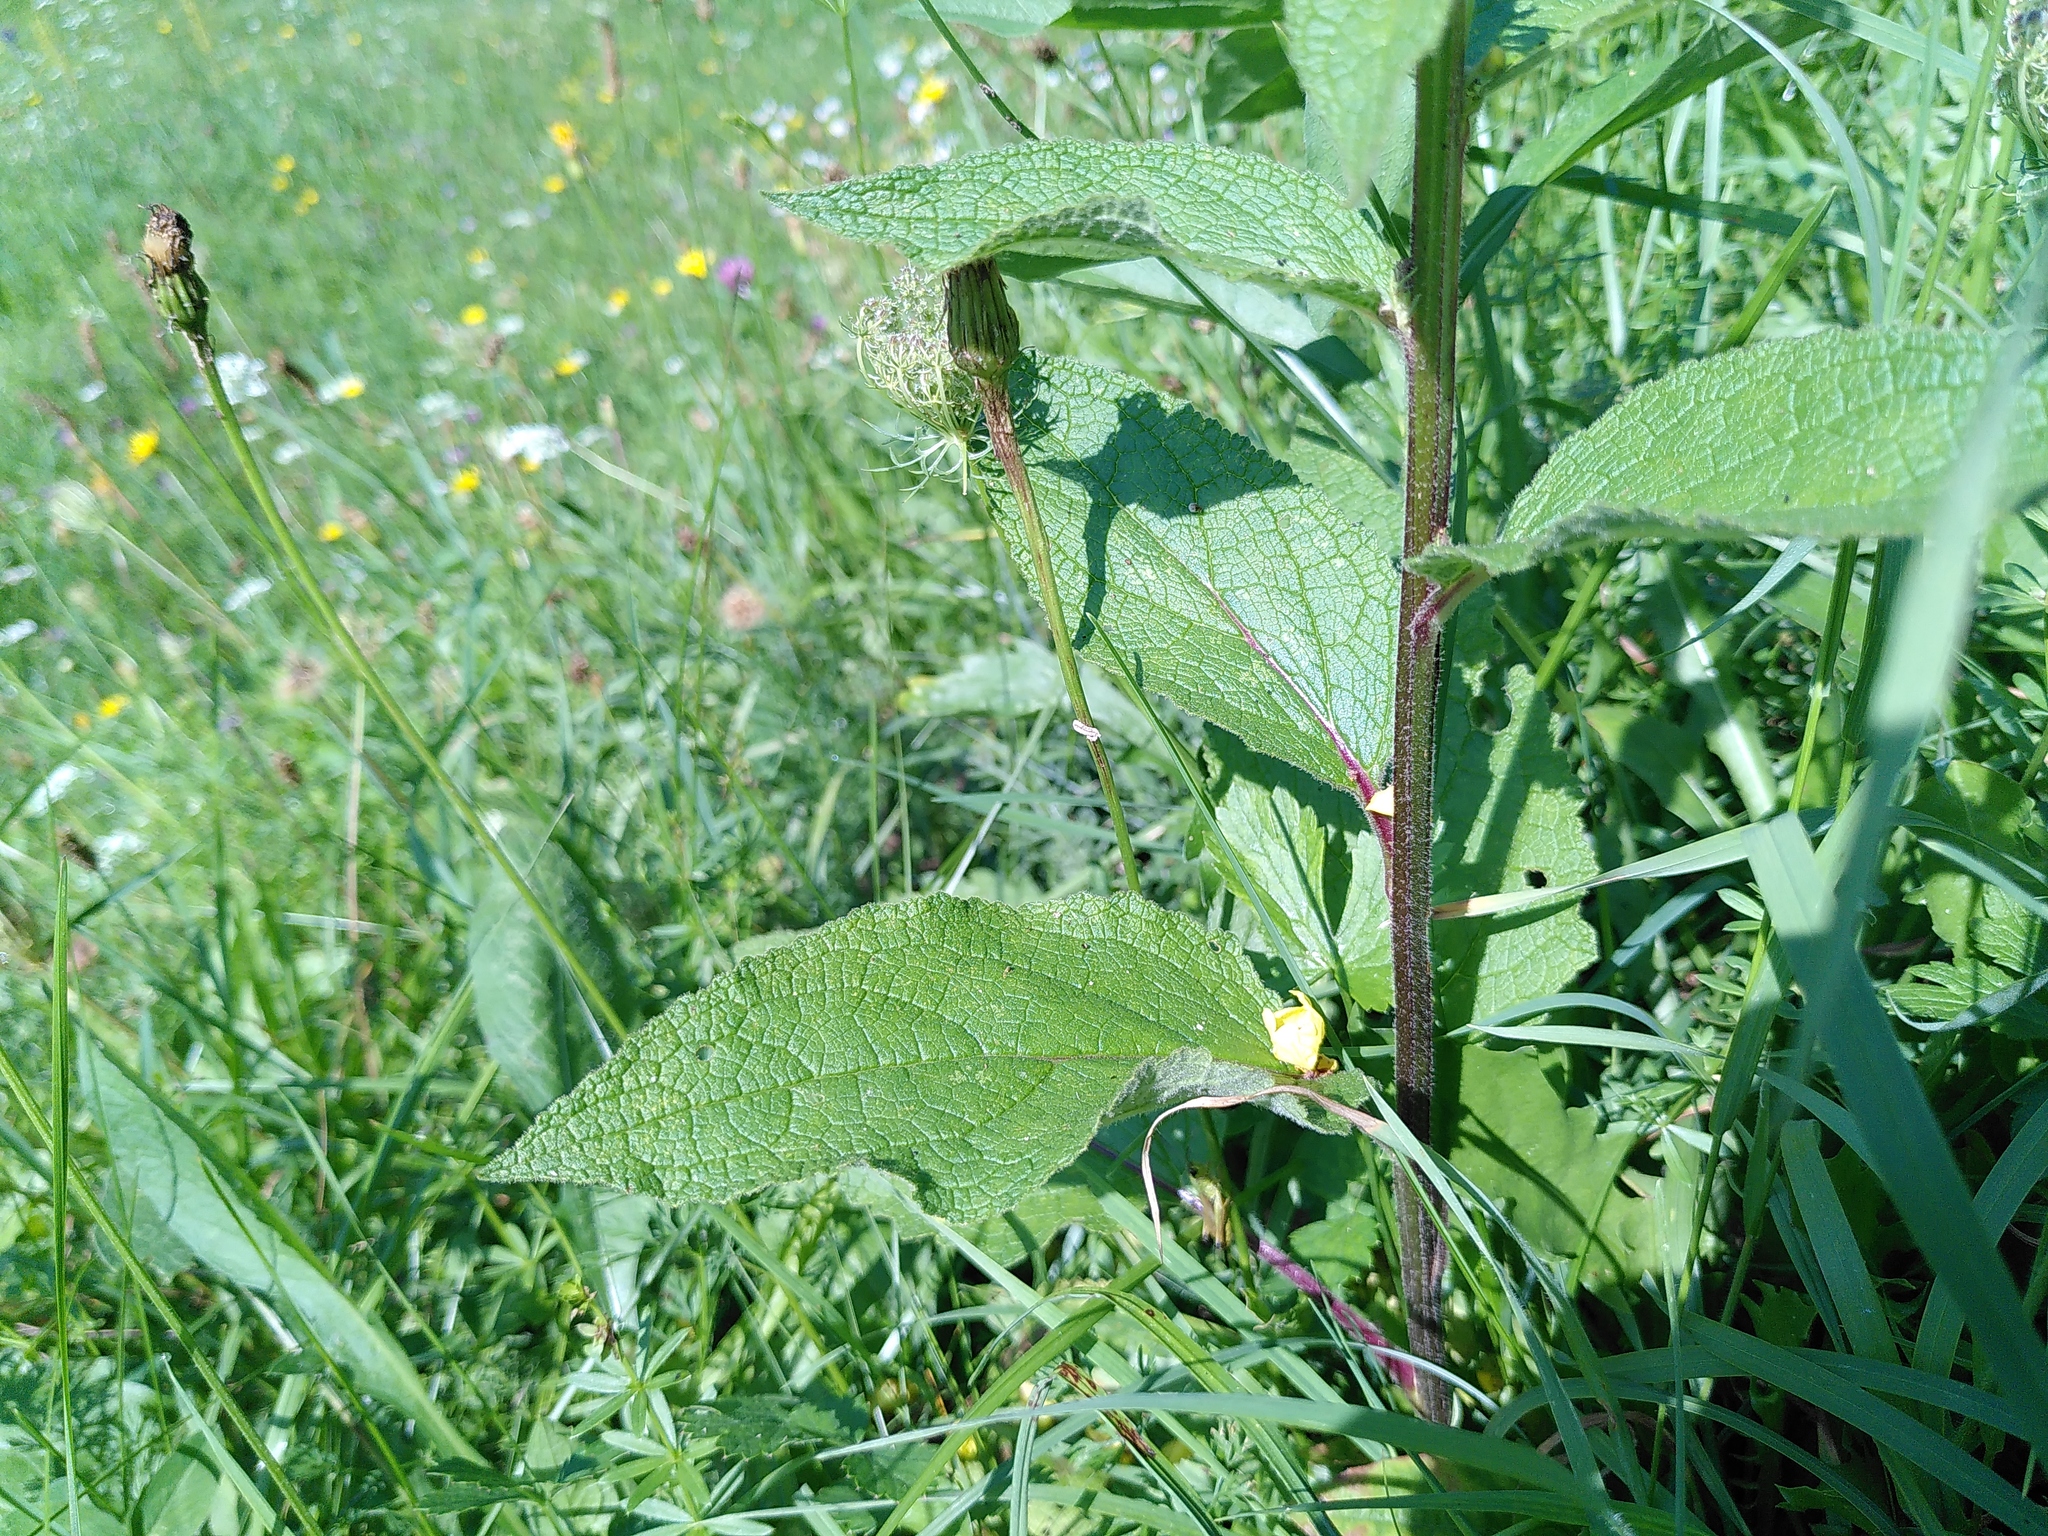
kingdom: Plantae
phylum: Tracheophyta
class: Magnoliopsida
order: Lamiales
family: Scrophulariaceae
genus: Verbascum
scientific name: Verbascum nigrum
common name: Dark mullein
